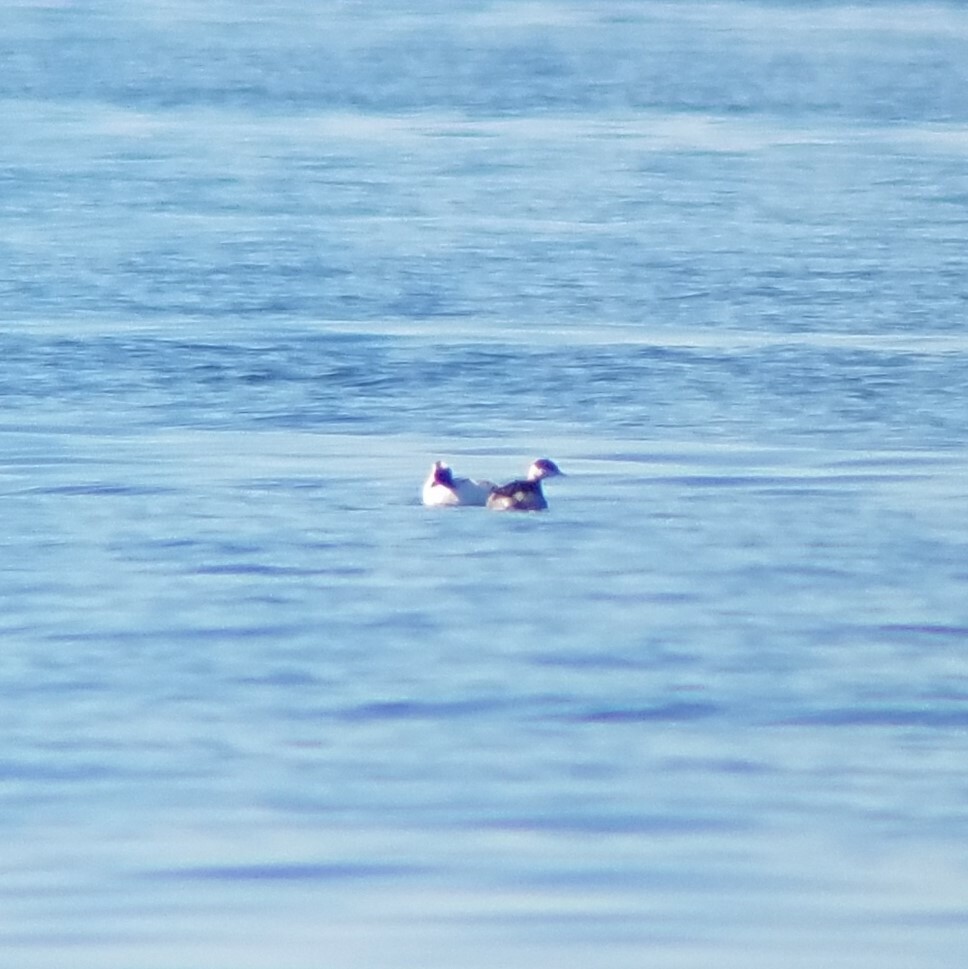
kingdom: Animalia
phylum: Chordata
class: Aves
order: Podicipediformes
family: Podicipedidae
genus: Podiceps
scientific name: Podiceps auritus
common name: Horned grebe
